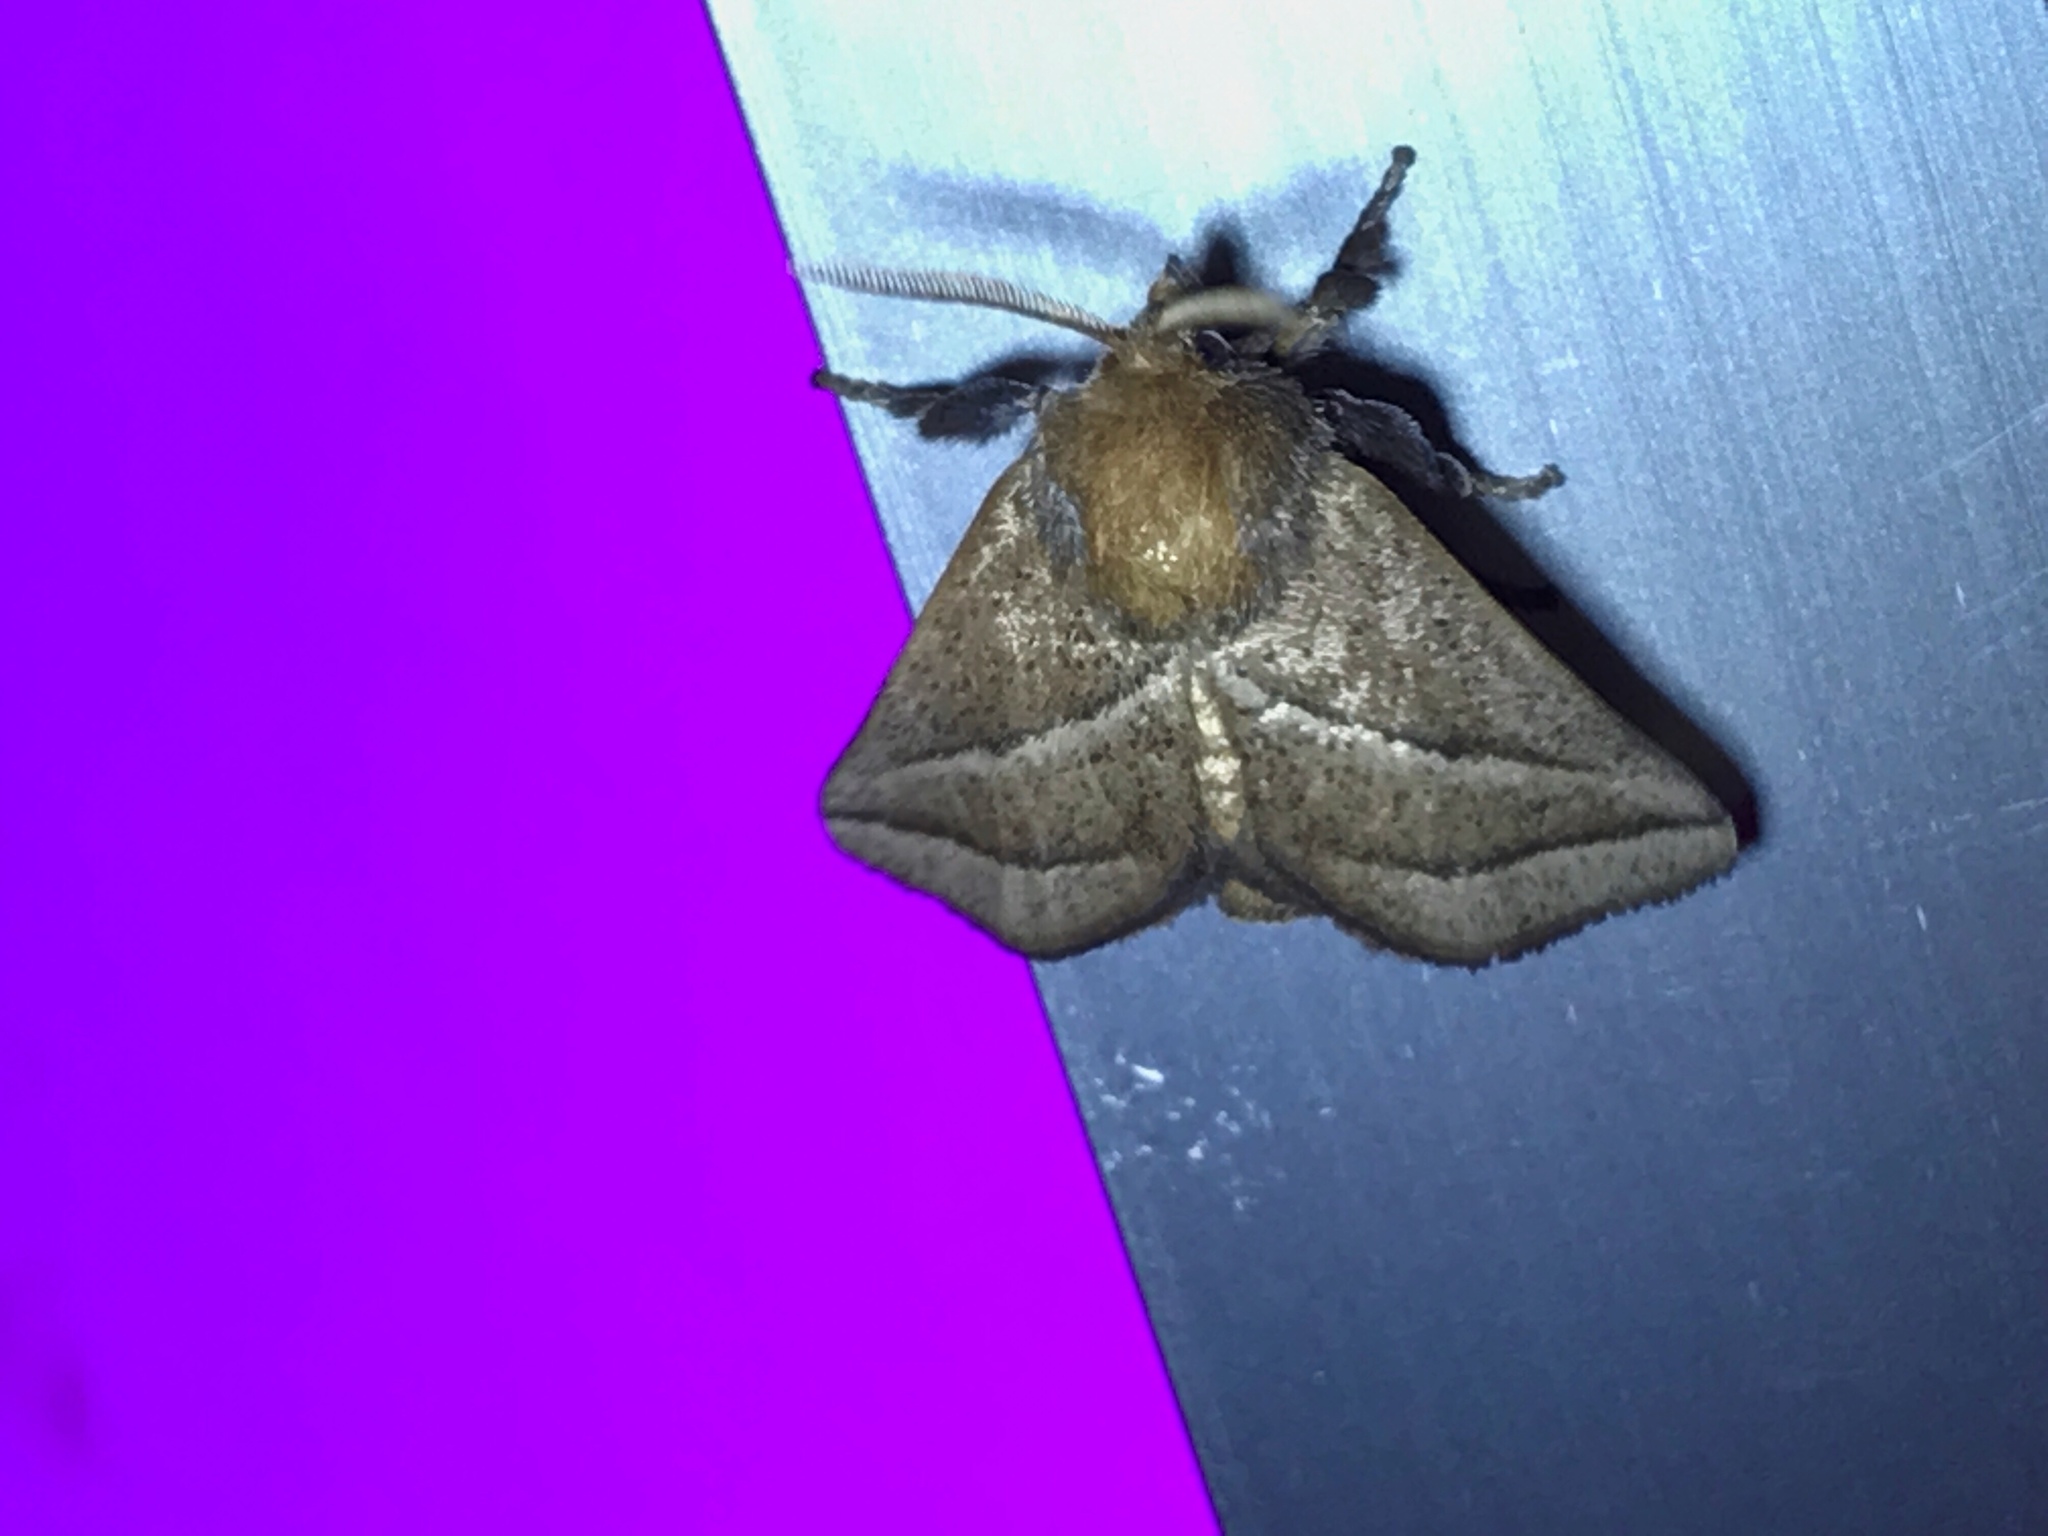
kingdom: Animalia
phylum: Arthropoda
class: Insecta
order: Lepidoptera
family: Limacodidae
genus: Natada
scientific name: Natada nasoni
